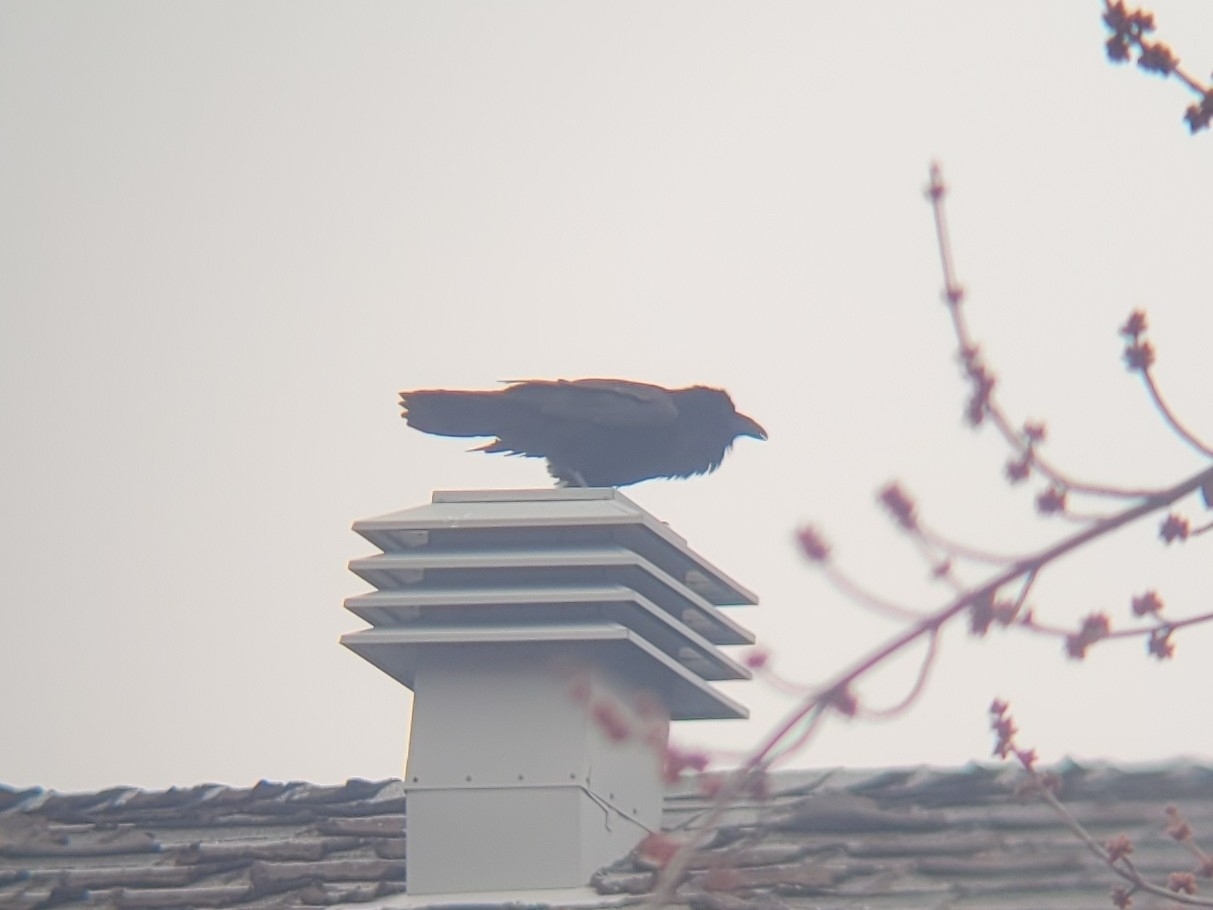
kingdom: Animalia
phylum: Chordata
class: Aves
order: Passeriformes
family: Corvidae
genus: Corvus
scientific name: Corvus corax
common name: Common raven
